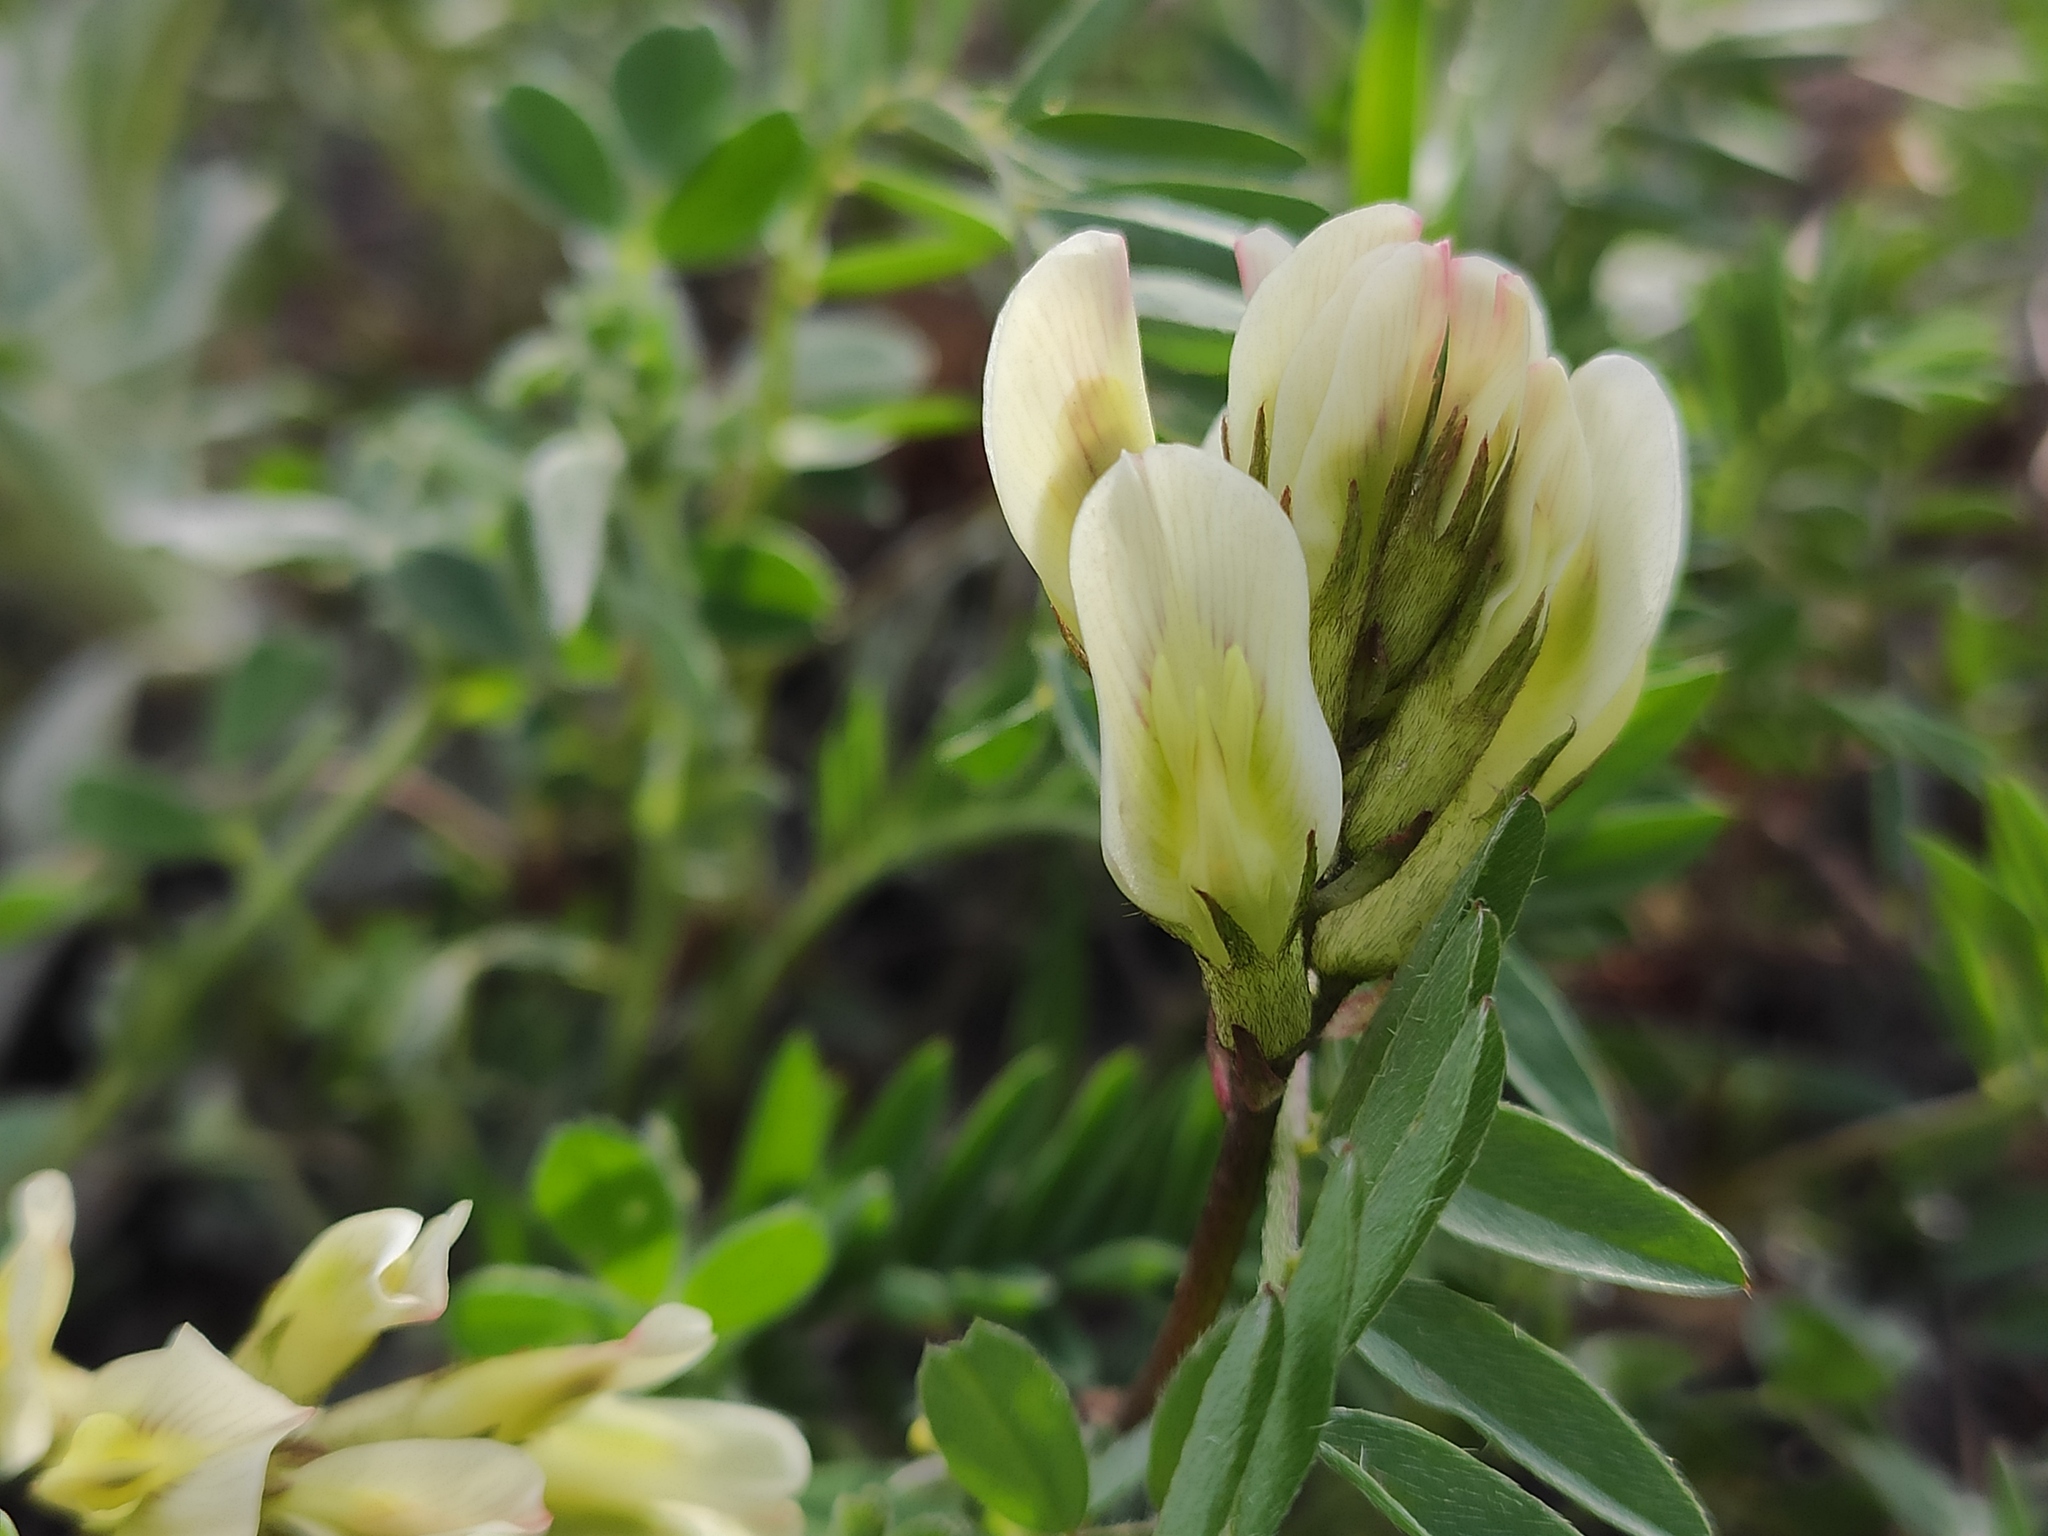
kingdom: Plantae
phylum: Tracheophyta
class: Magnoliopsida
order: Fabales
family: Fabaceae
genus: Astragalus
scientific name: Astragalus fragrans
